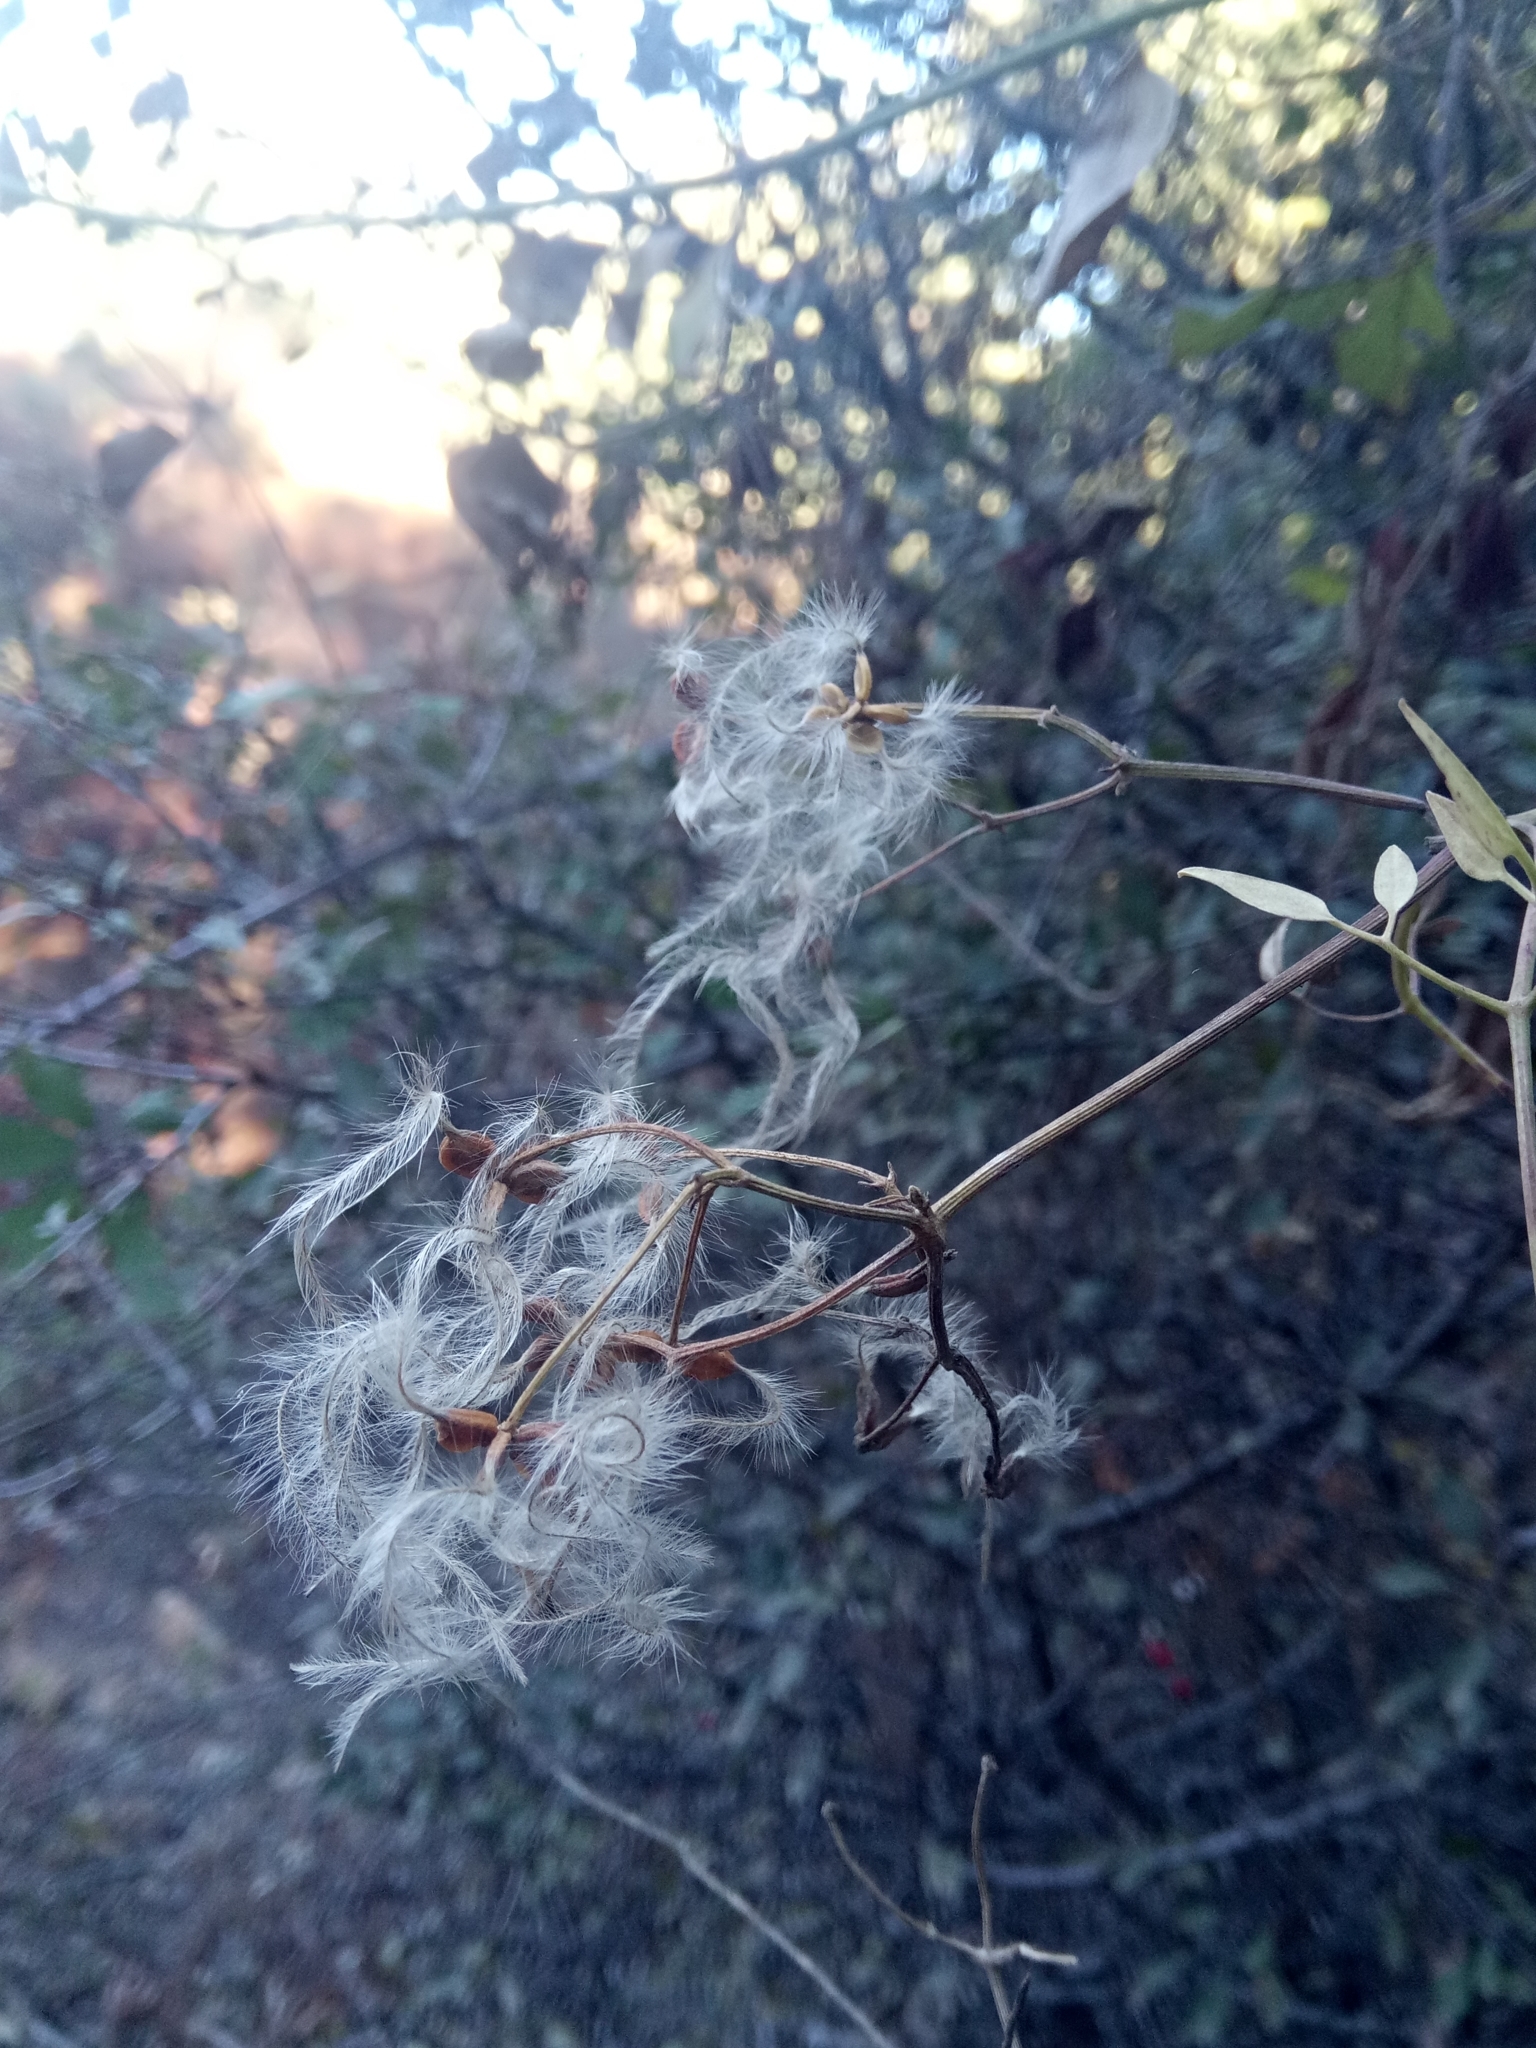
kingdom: Plantae
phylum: Tracheophyta
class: Magnoliopsida
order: Ranunculales
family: Ranunculaceae
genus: Clematis
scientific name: Clematis flammula
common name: Virgin's-bower
